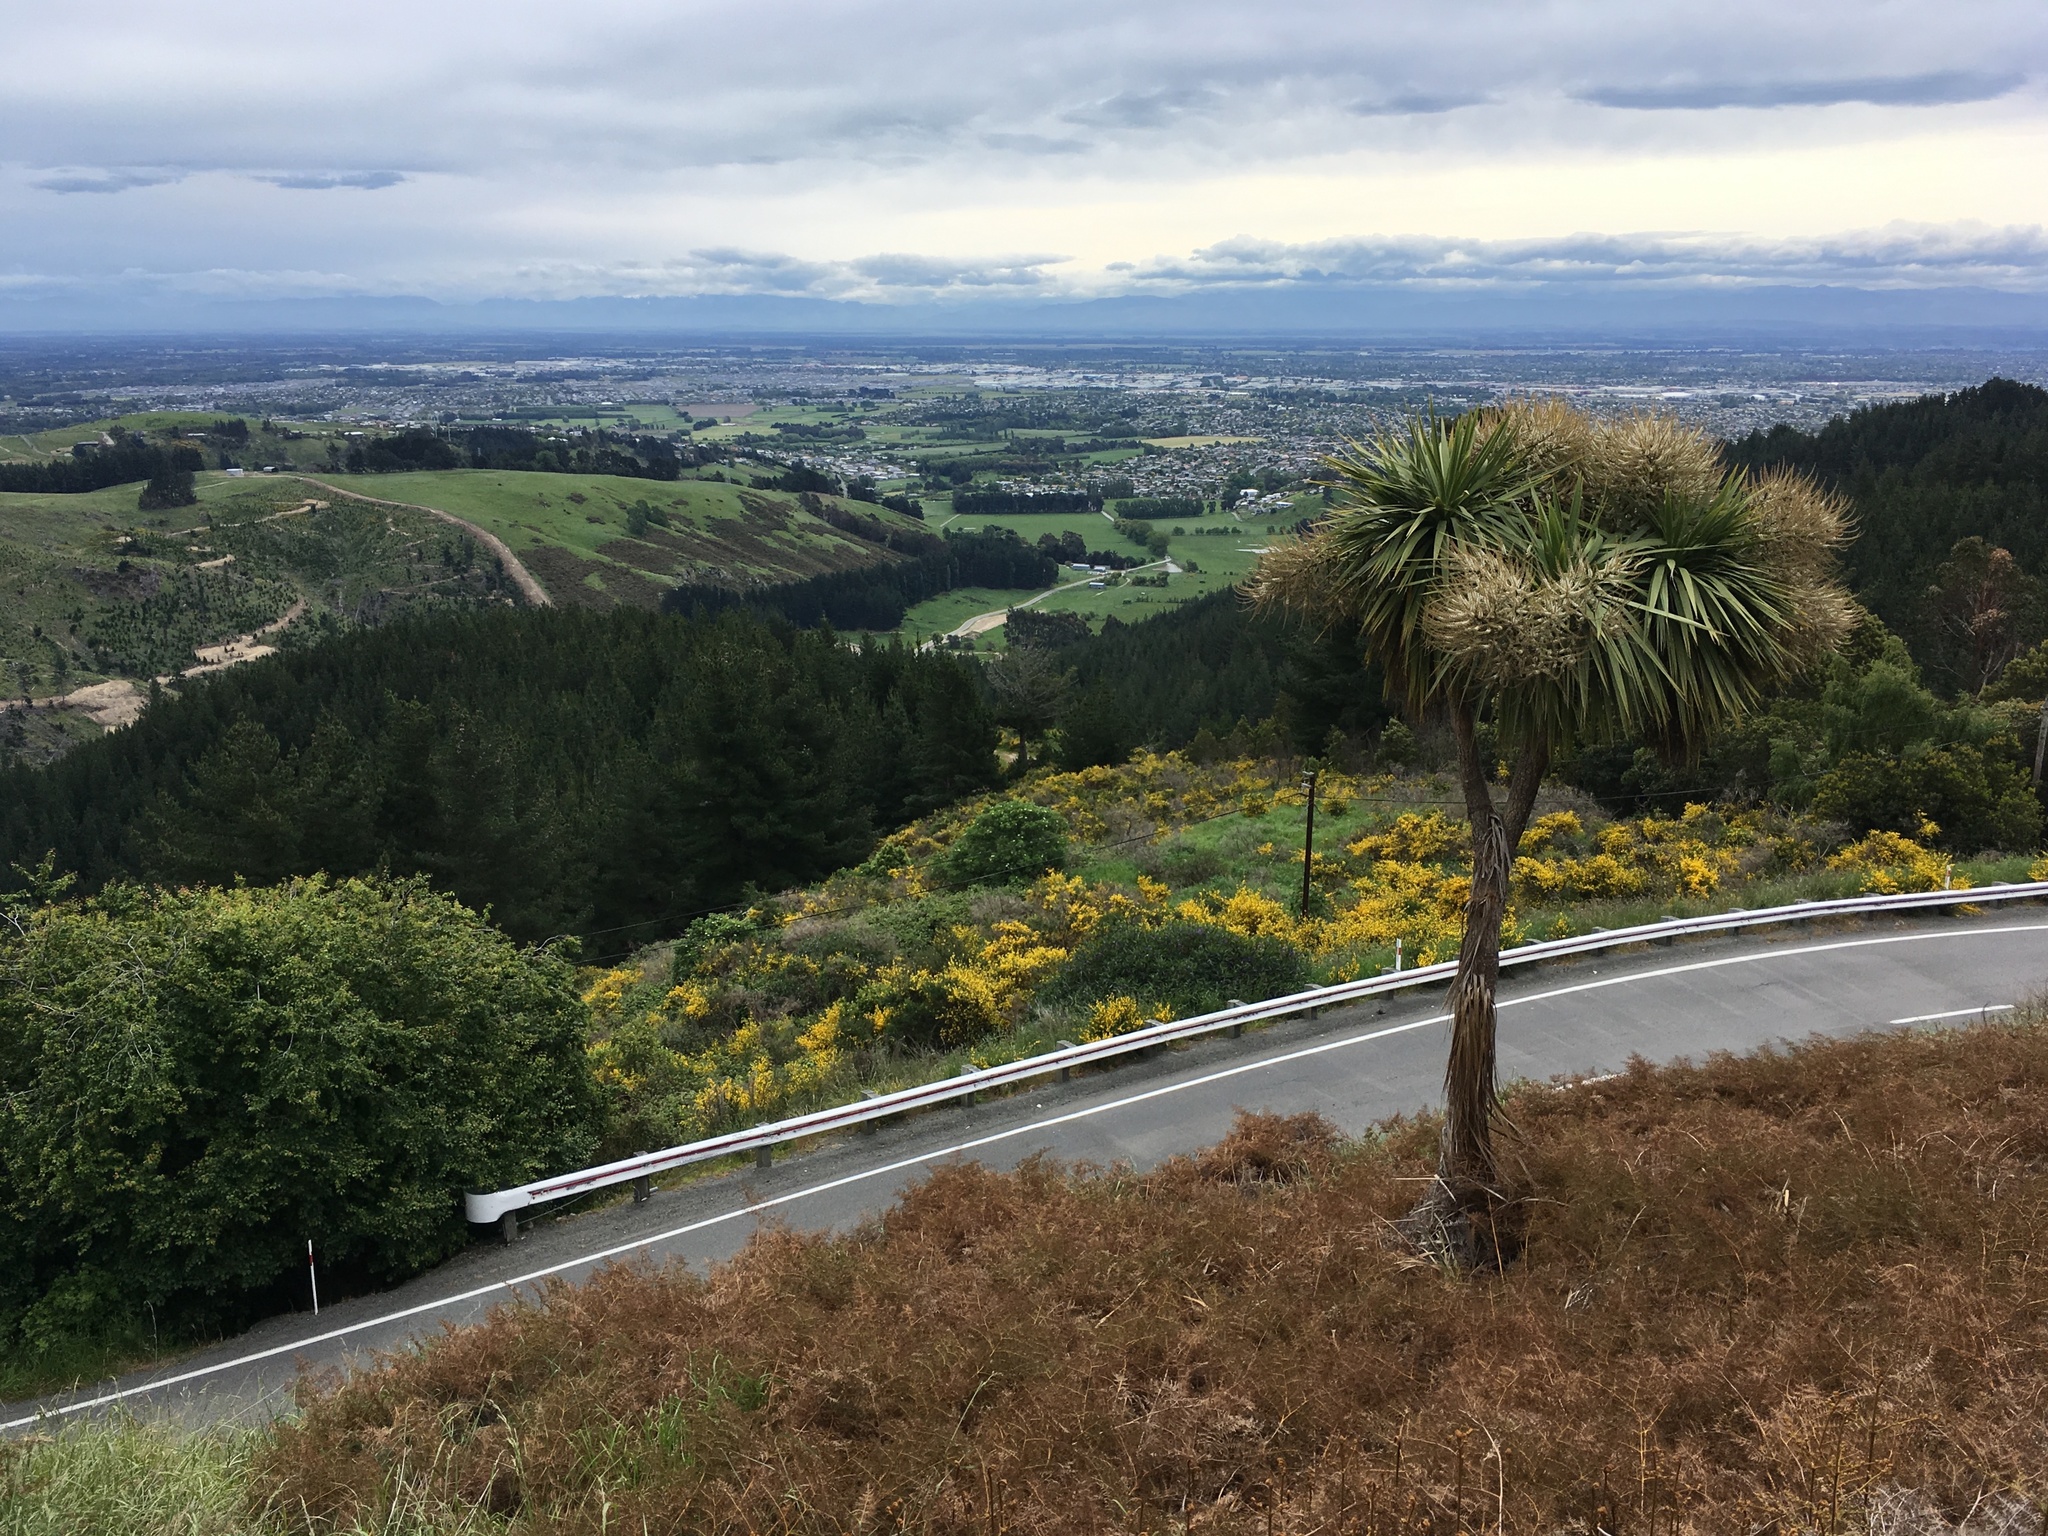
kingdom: Plantae
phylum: Tracheophyta
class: Liliopsida
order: Asparagales
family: Asparagaceae
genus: Cordyline
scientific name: Cordyline australis
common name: Cabbage-palm
